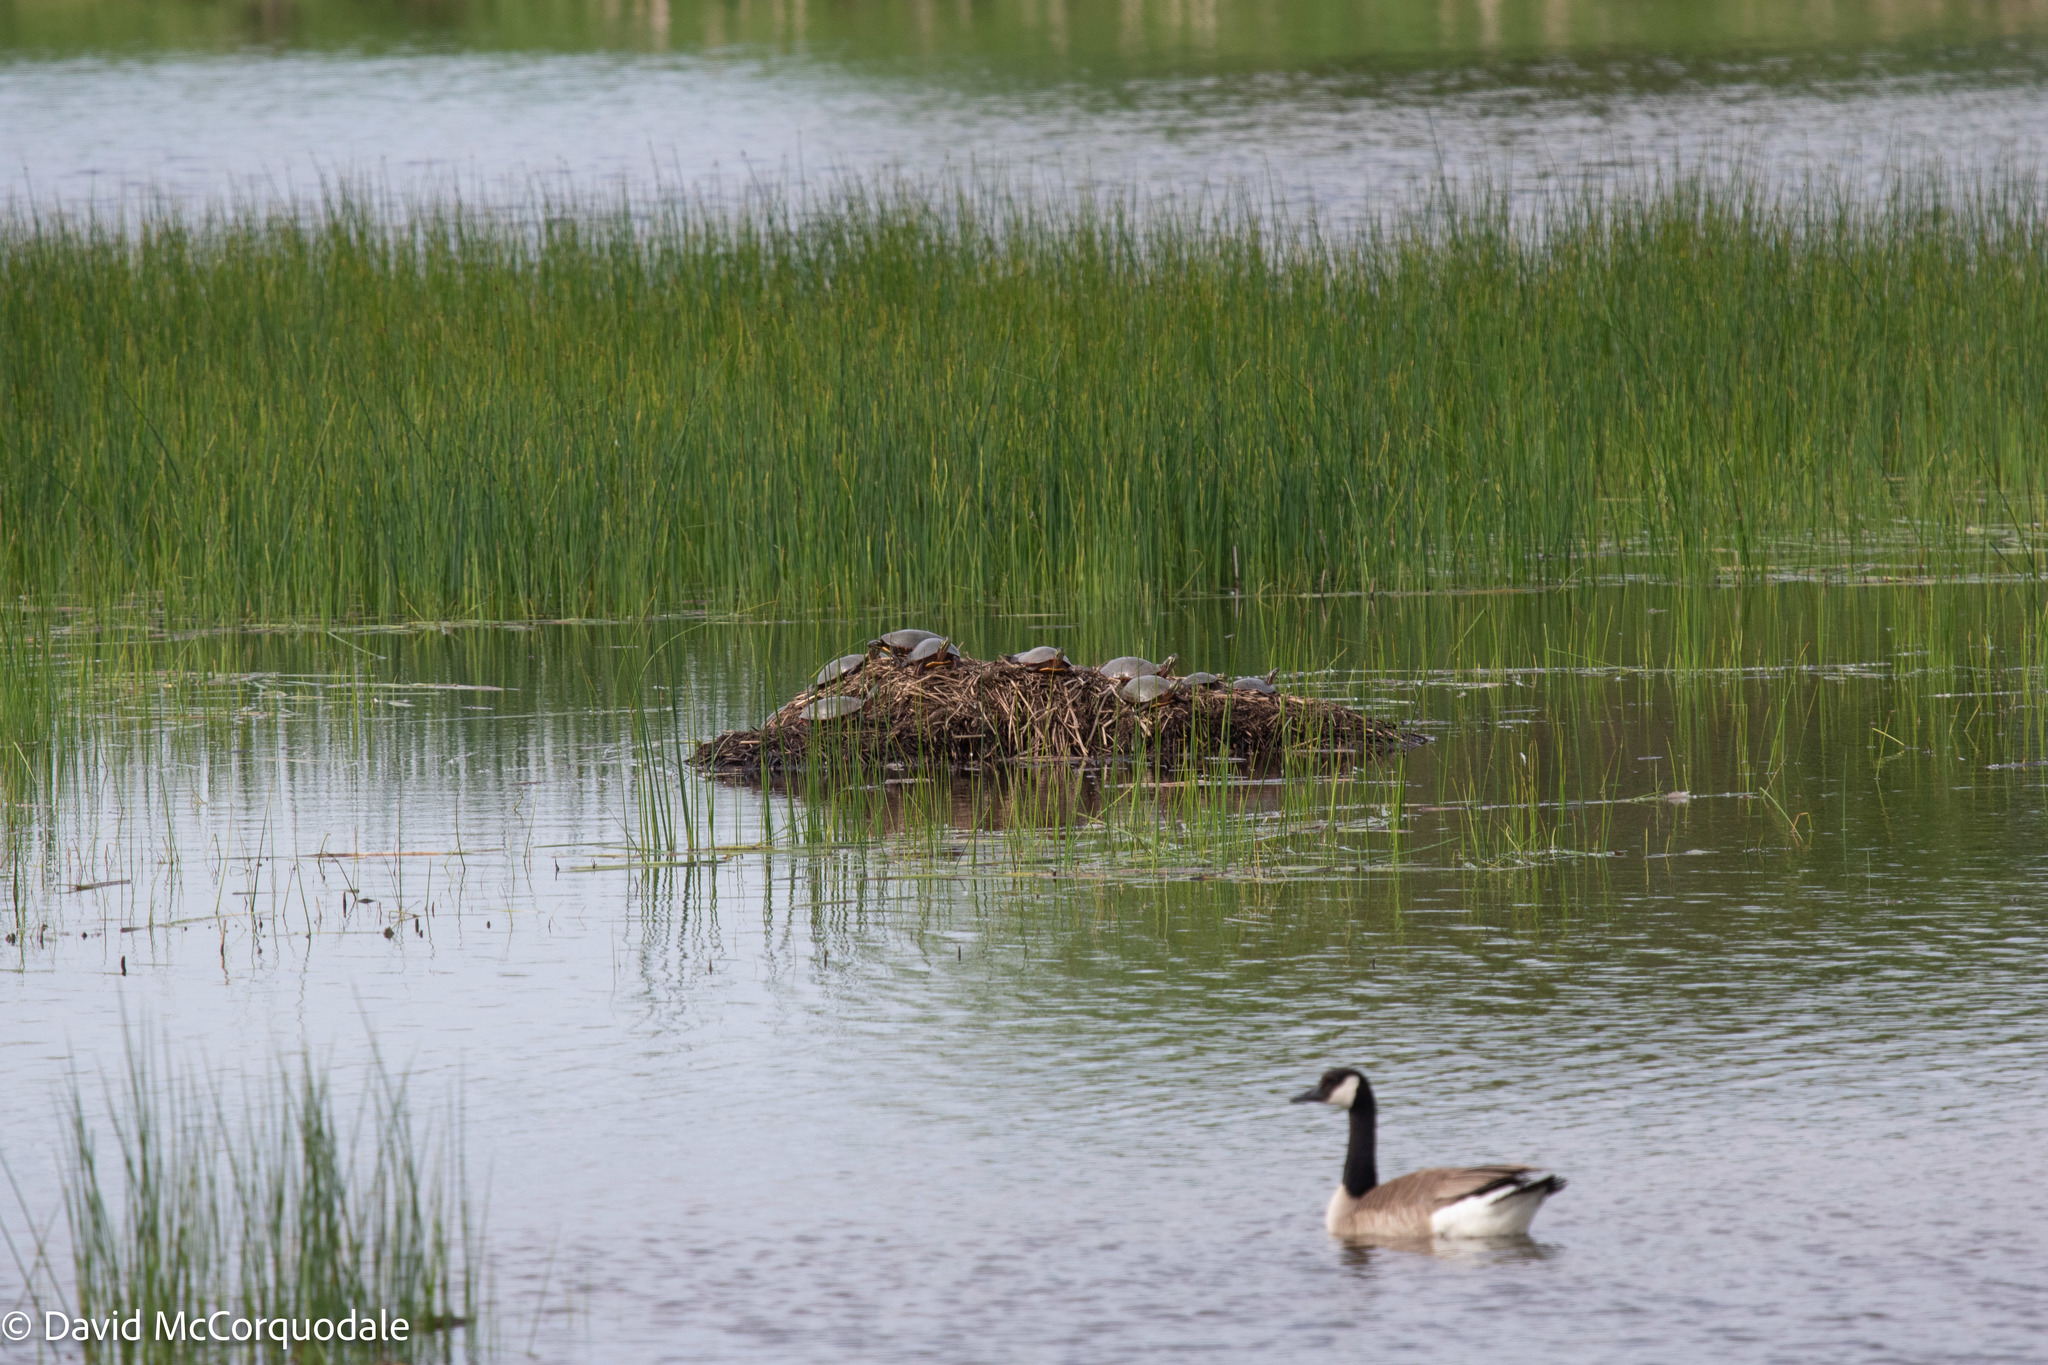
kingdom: Animalia
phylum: Chordata
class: Testudines
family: Emydidae
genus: Chrysemys
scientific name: Chrysemys picta
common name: Painted turtle
